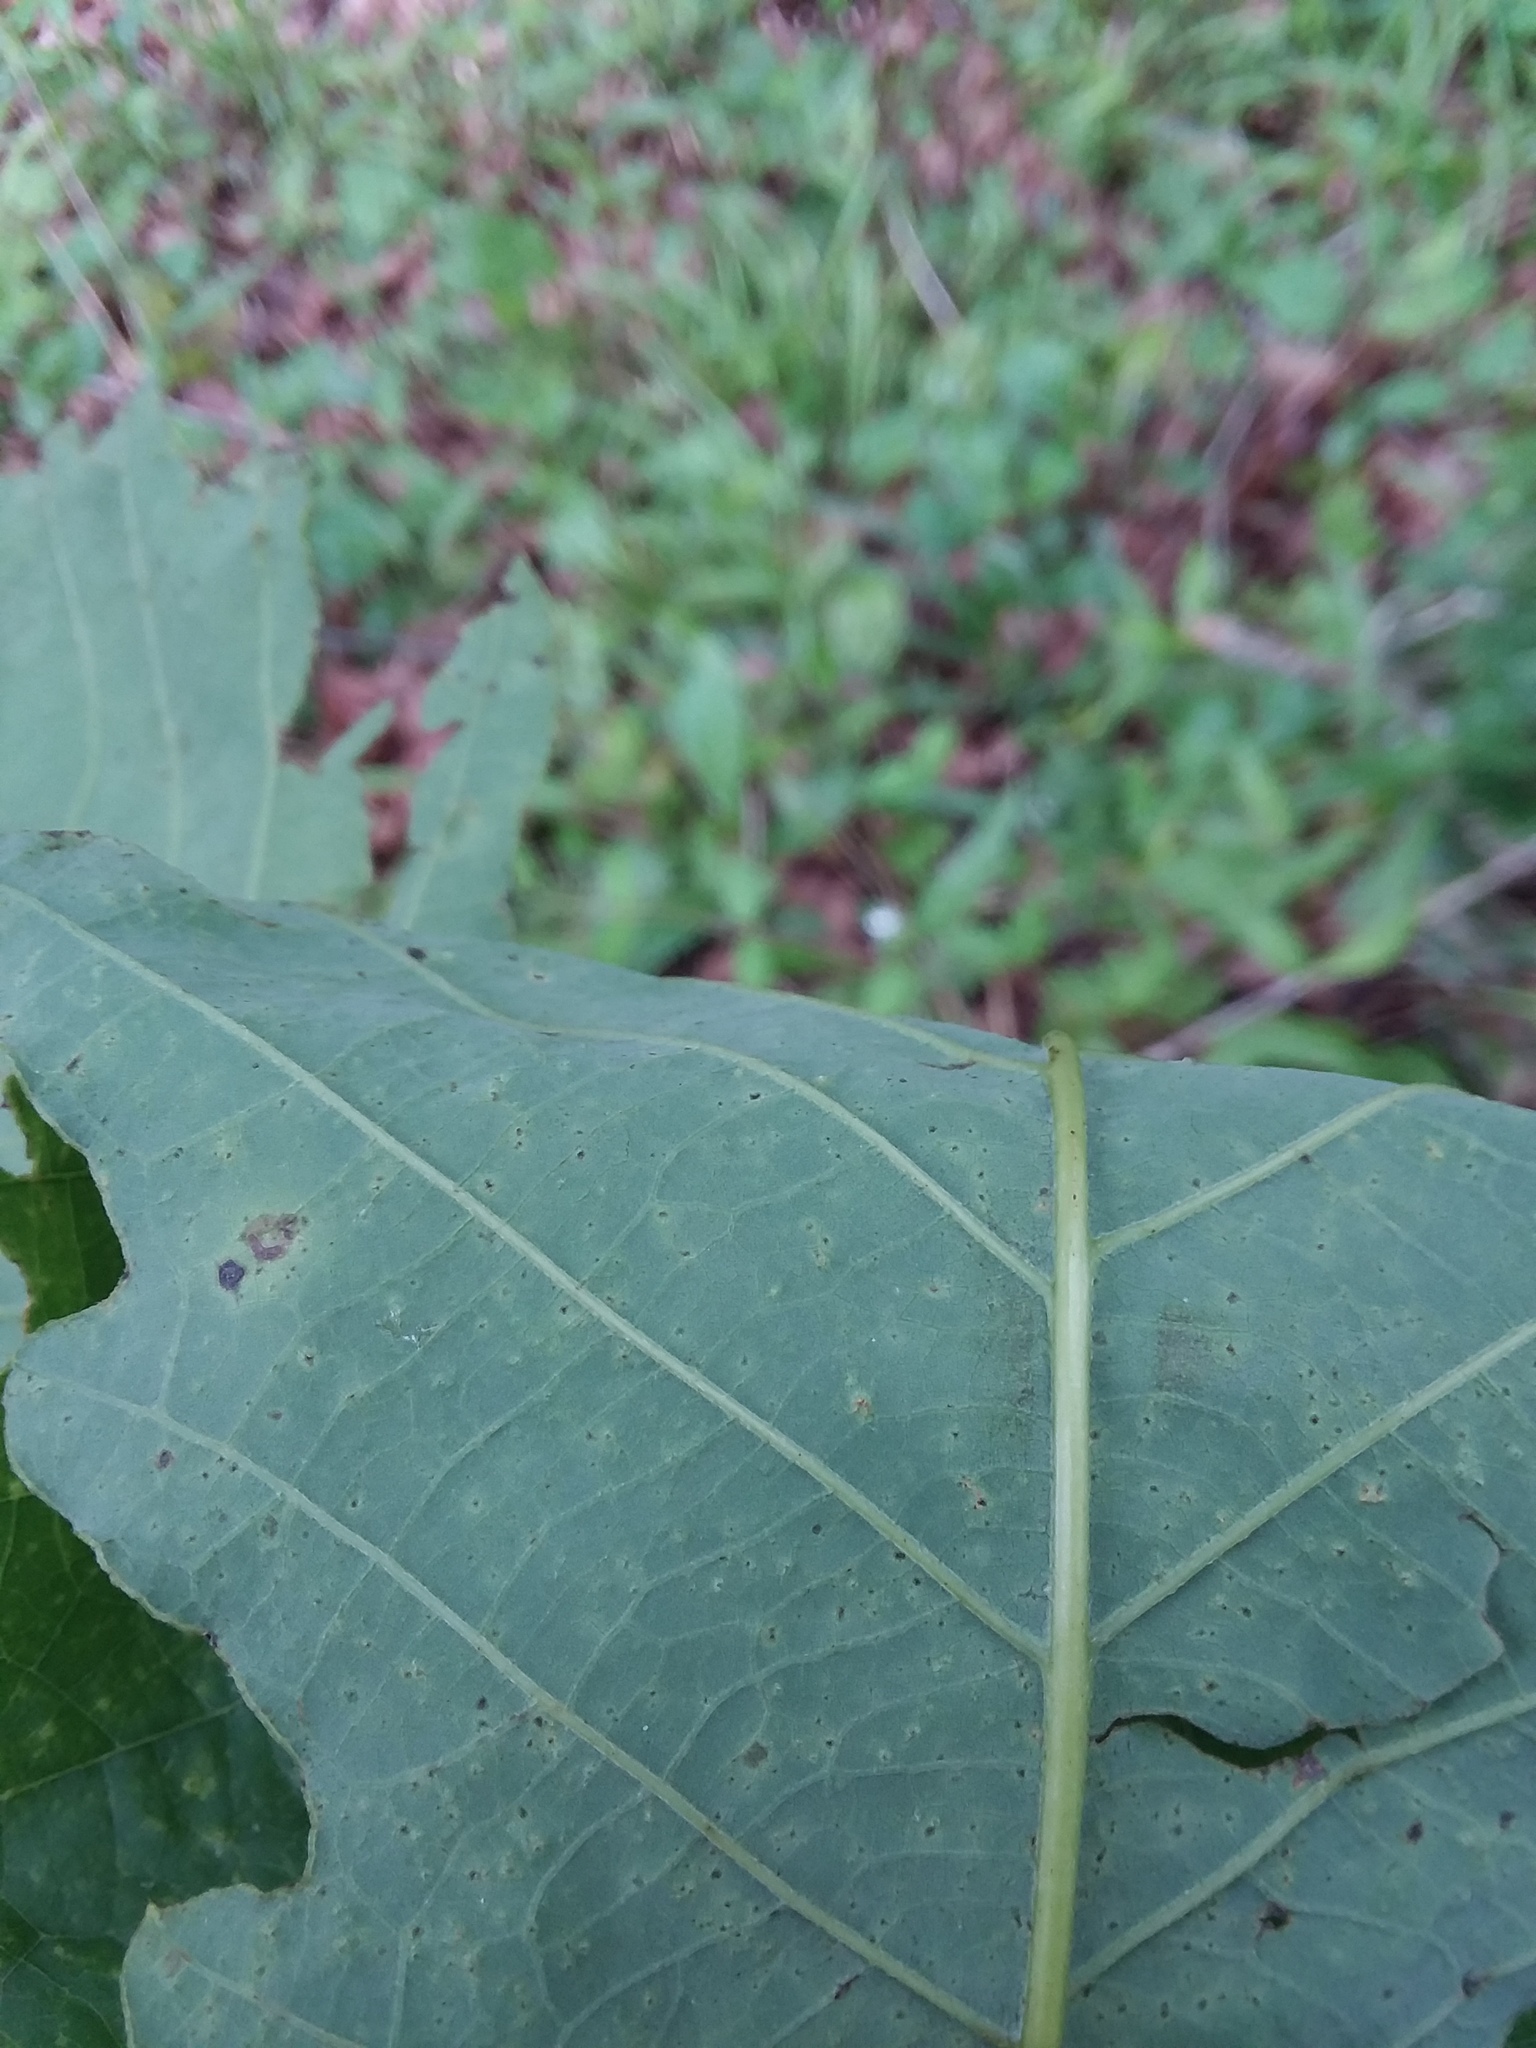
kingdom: Plantae
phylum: Tracheophyta
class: Magnoliopsida
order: Fagales
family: Fagaceae
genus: Quercus
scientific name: Quercus michauxii
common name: Swamp chestnut oak
